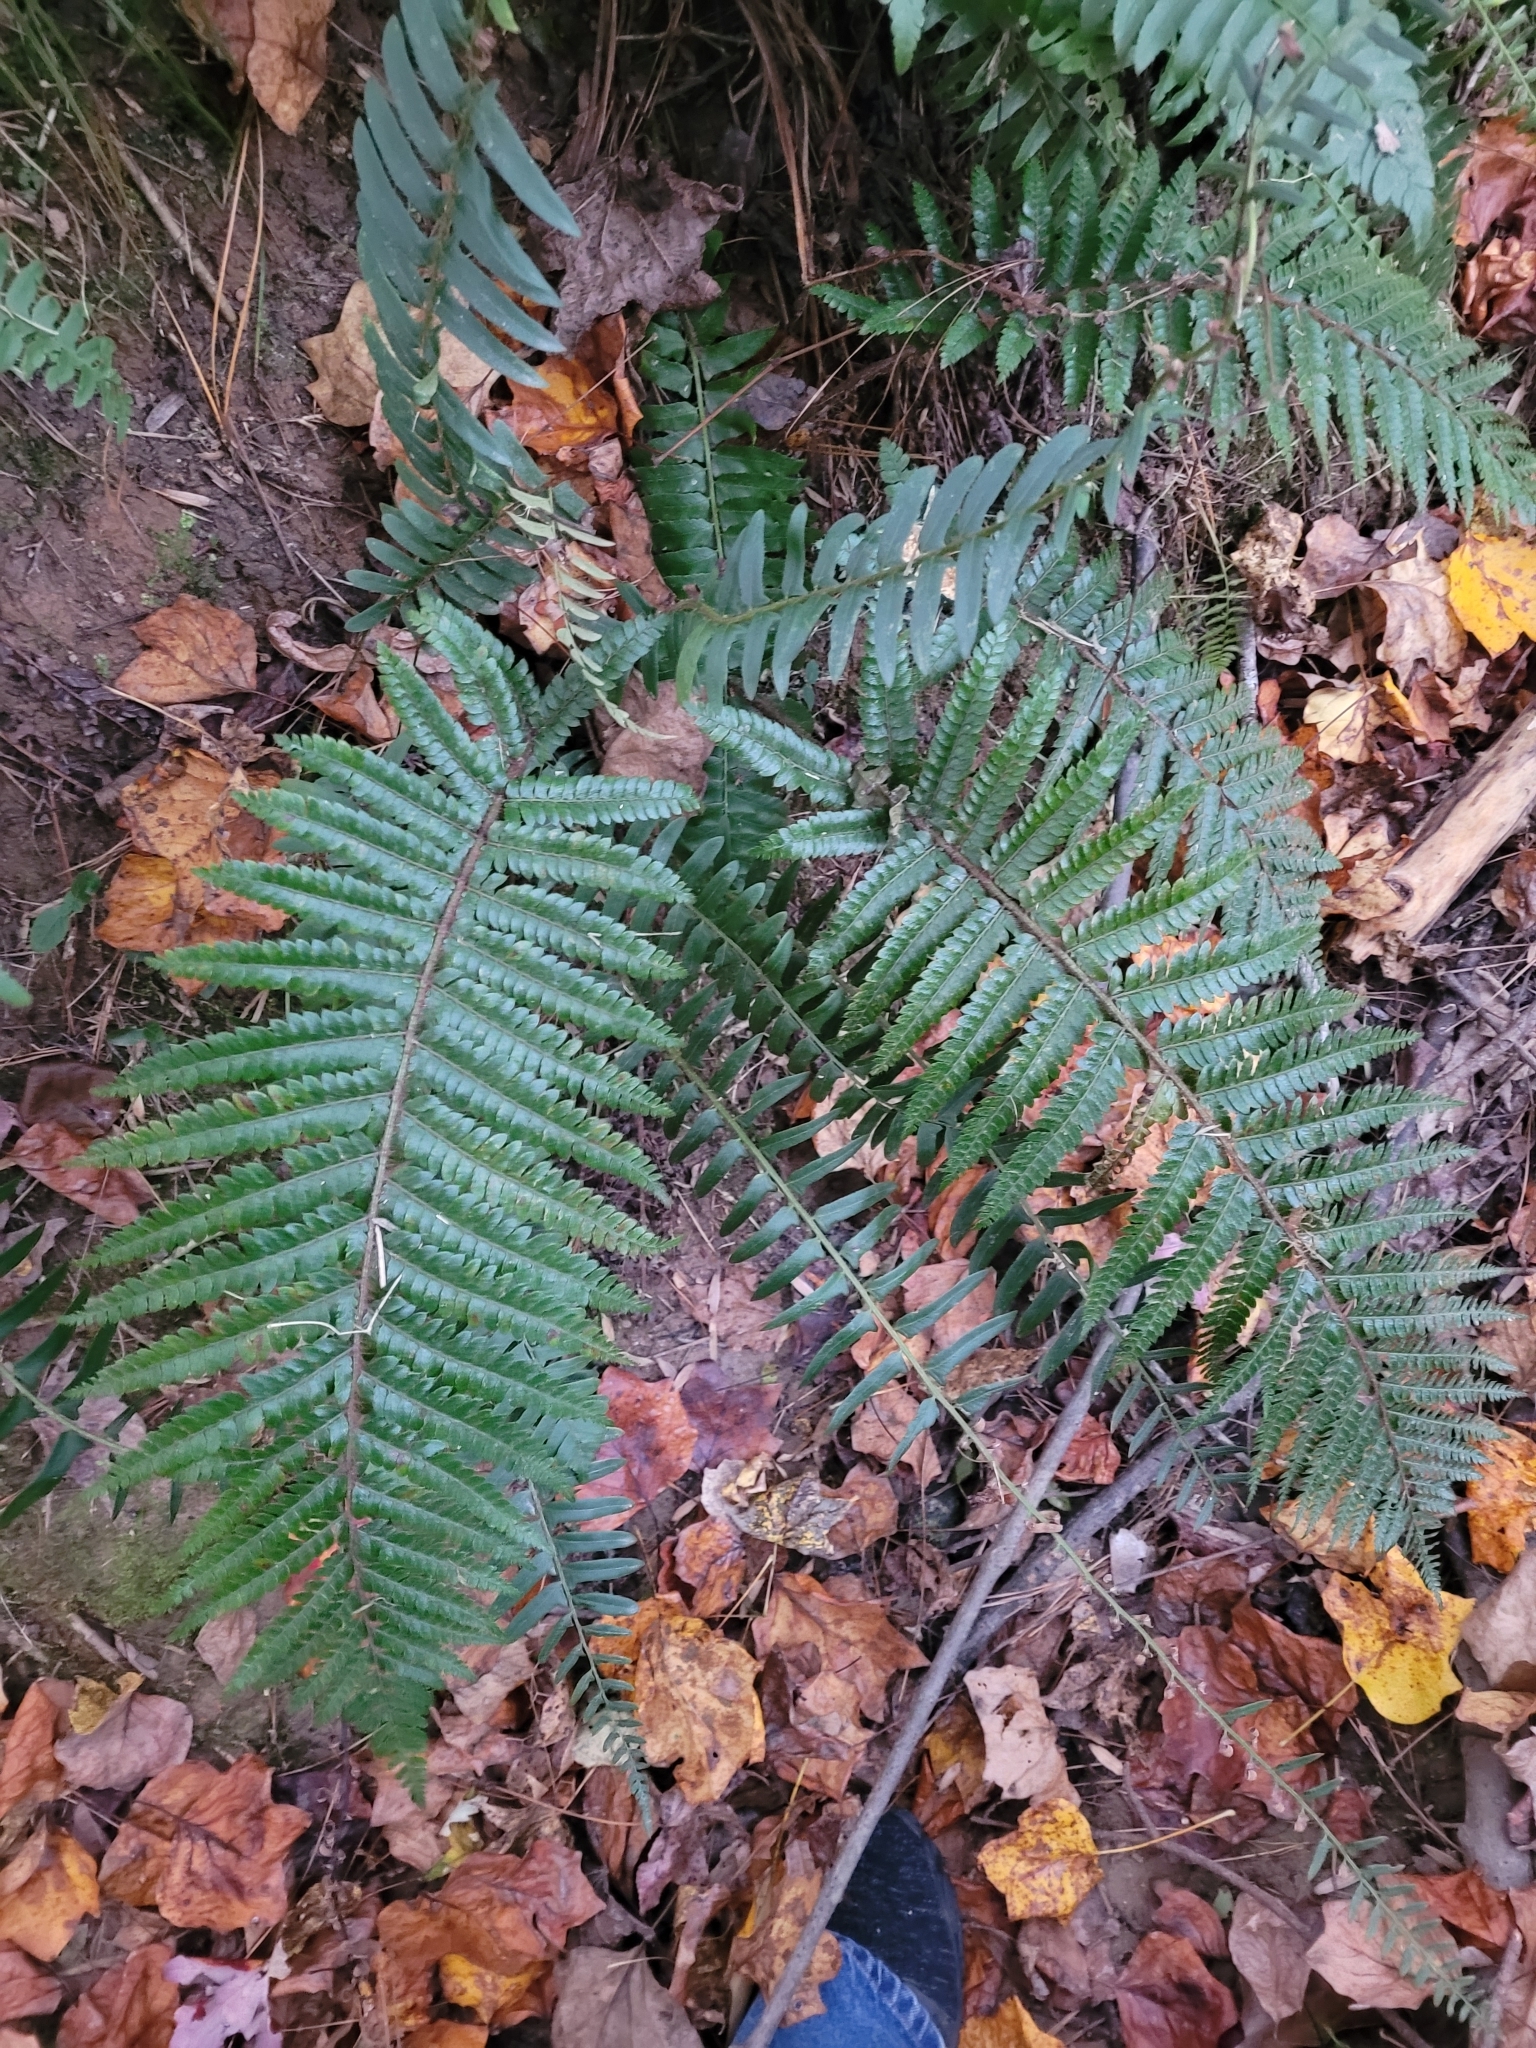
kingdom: Plantae
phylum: Tracheophyta
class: Polypodiopsida
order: Polypodiales
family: Dryopteridaceae
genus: Polystichum
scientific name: Polystichum luctuosum
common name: Korean rockfern
